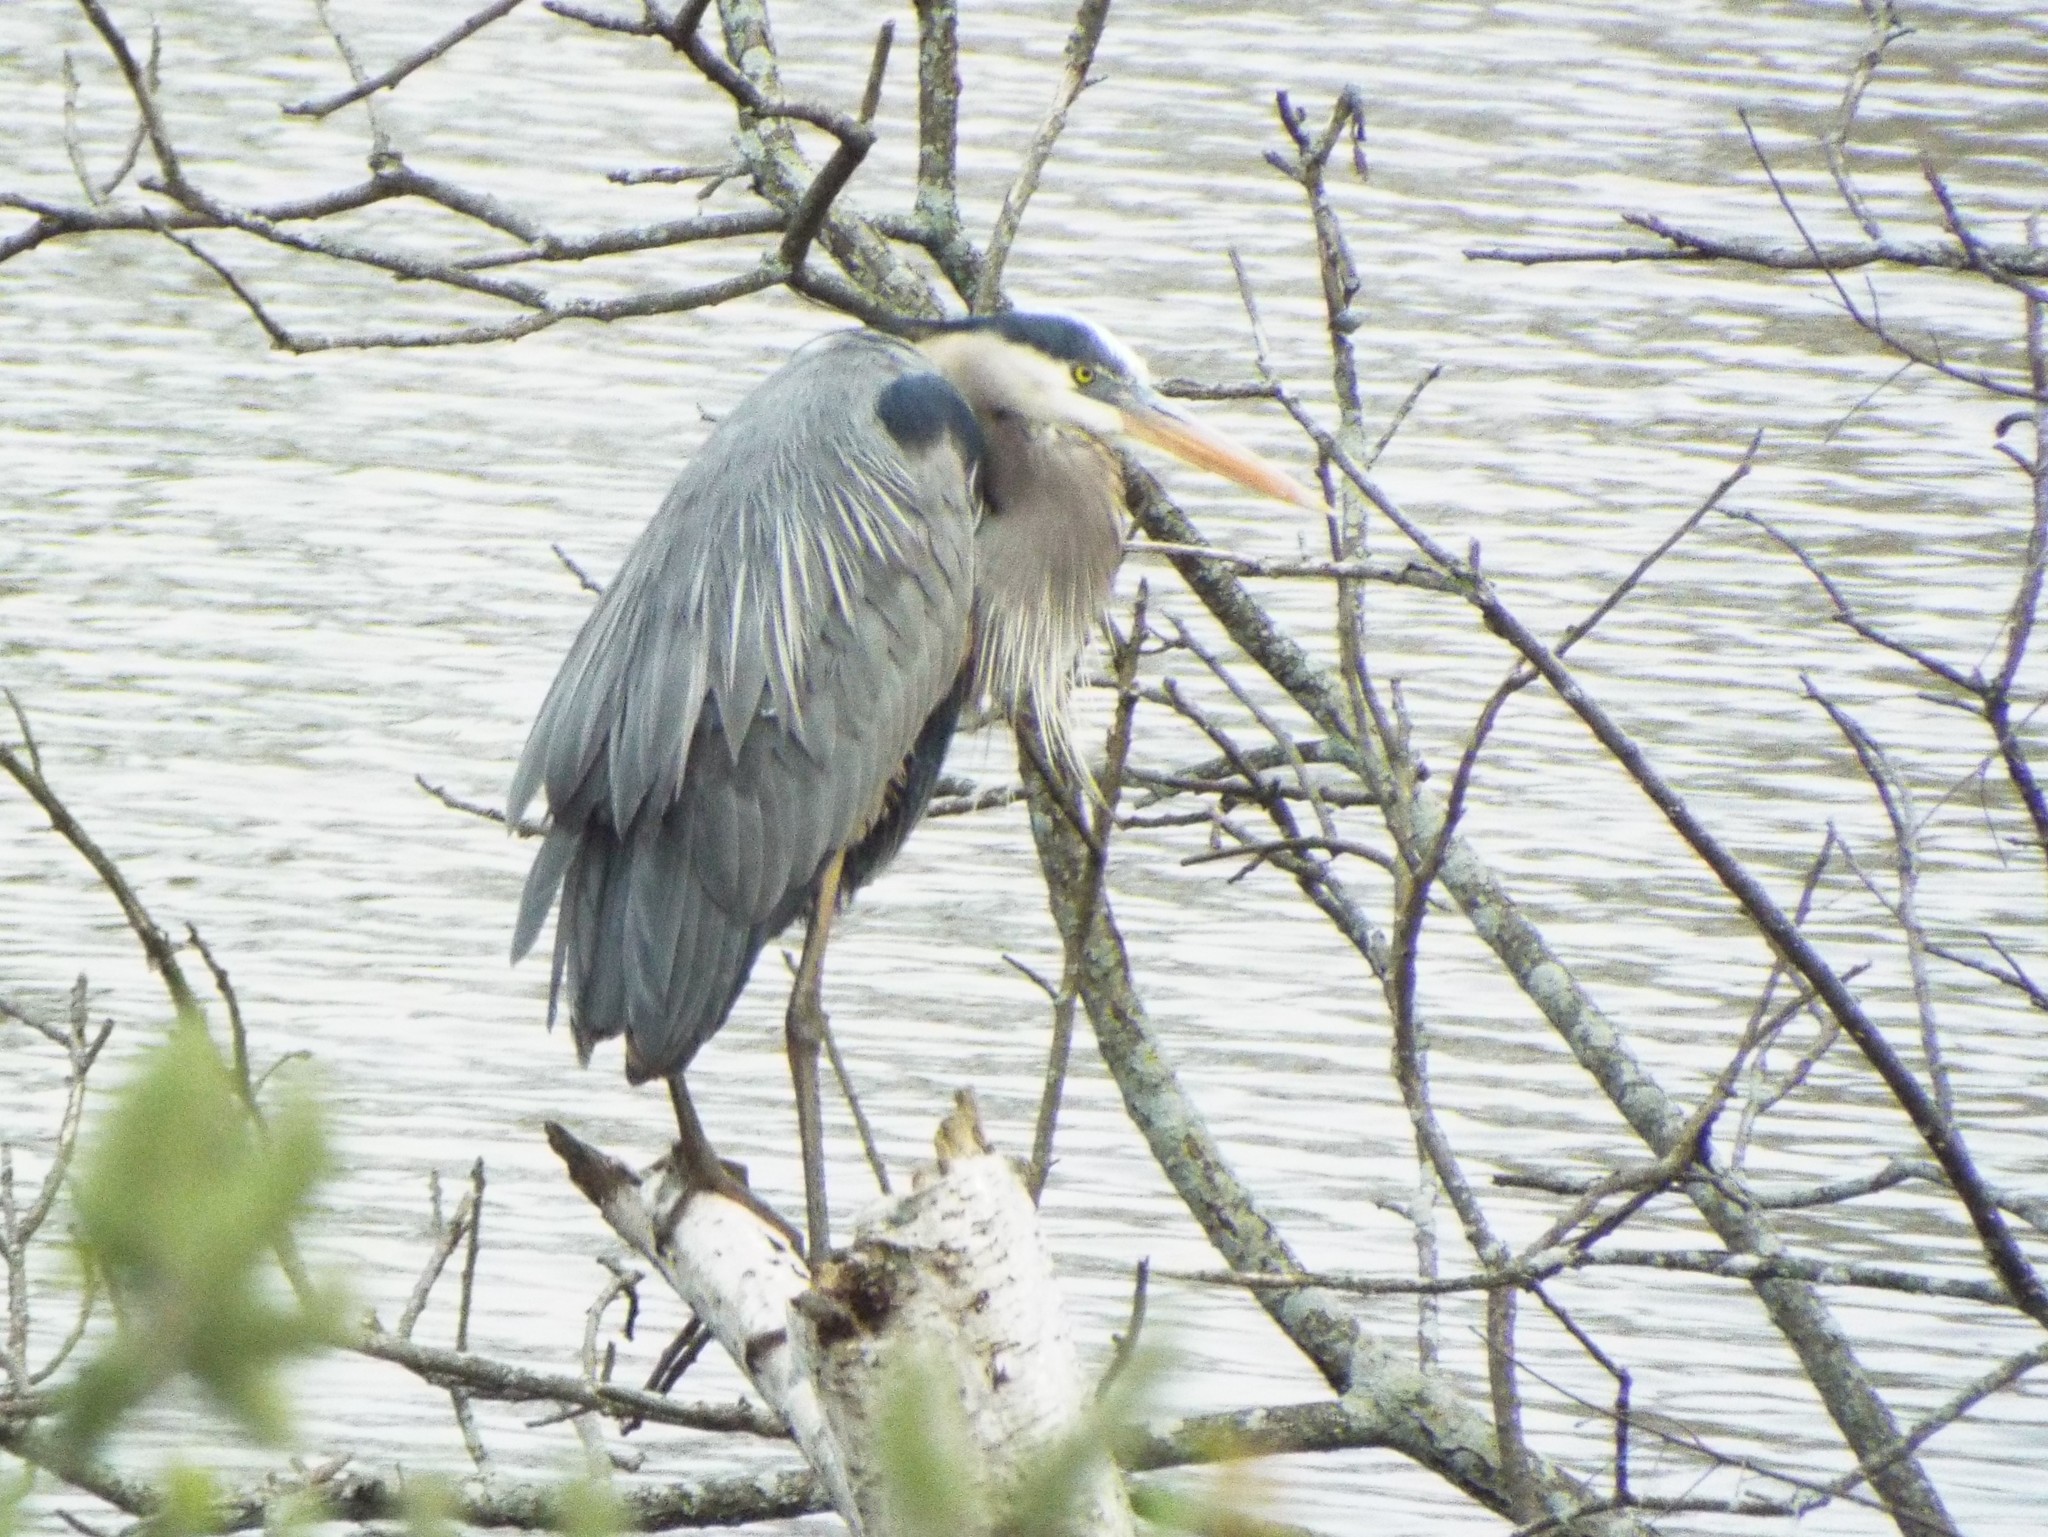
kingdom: Animalia
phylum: Chordata
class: Aves
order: Pelecaniformes
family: Ardeidae
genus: Ardea
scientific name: Ardea herodias
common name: Great blue heron
